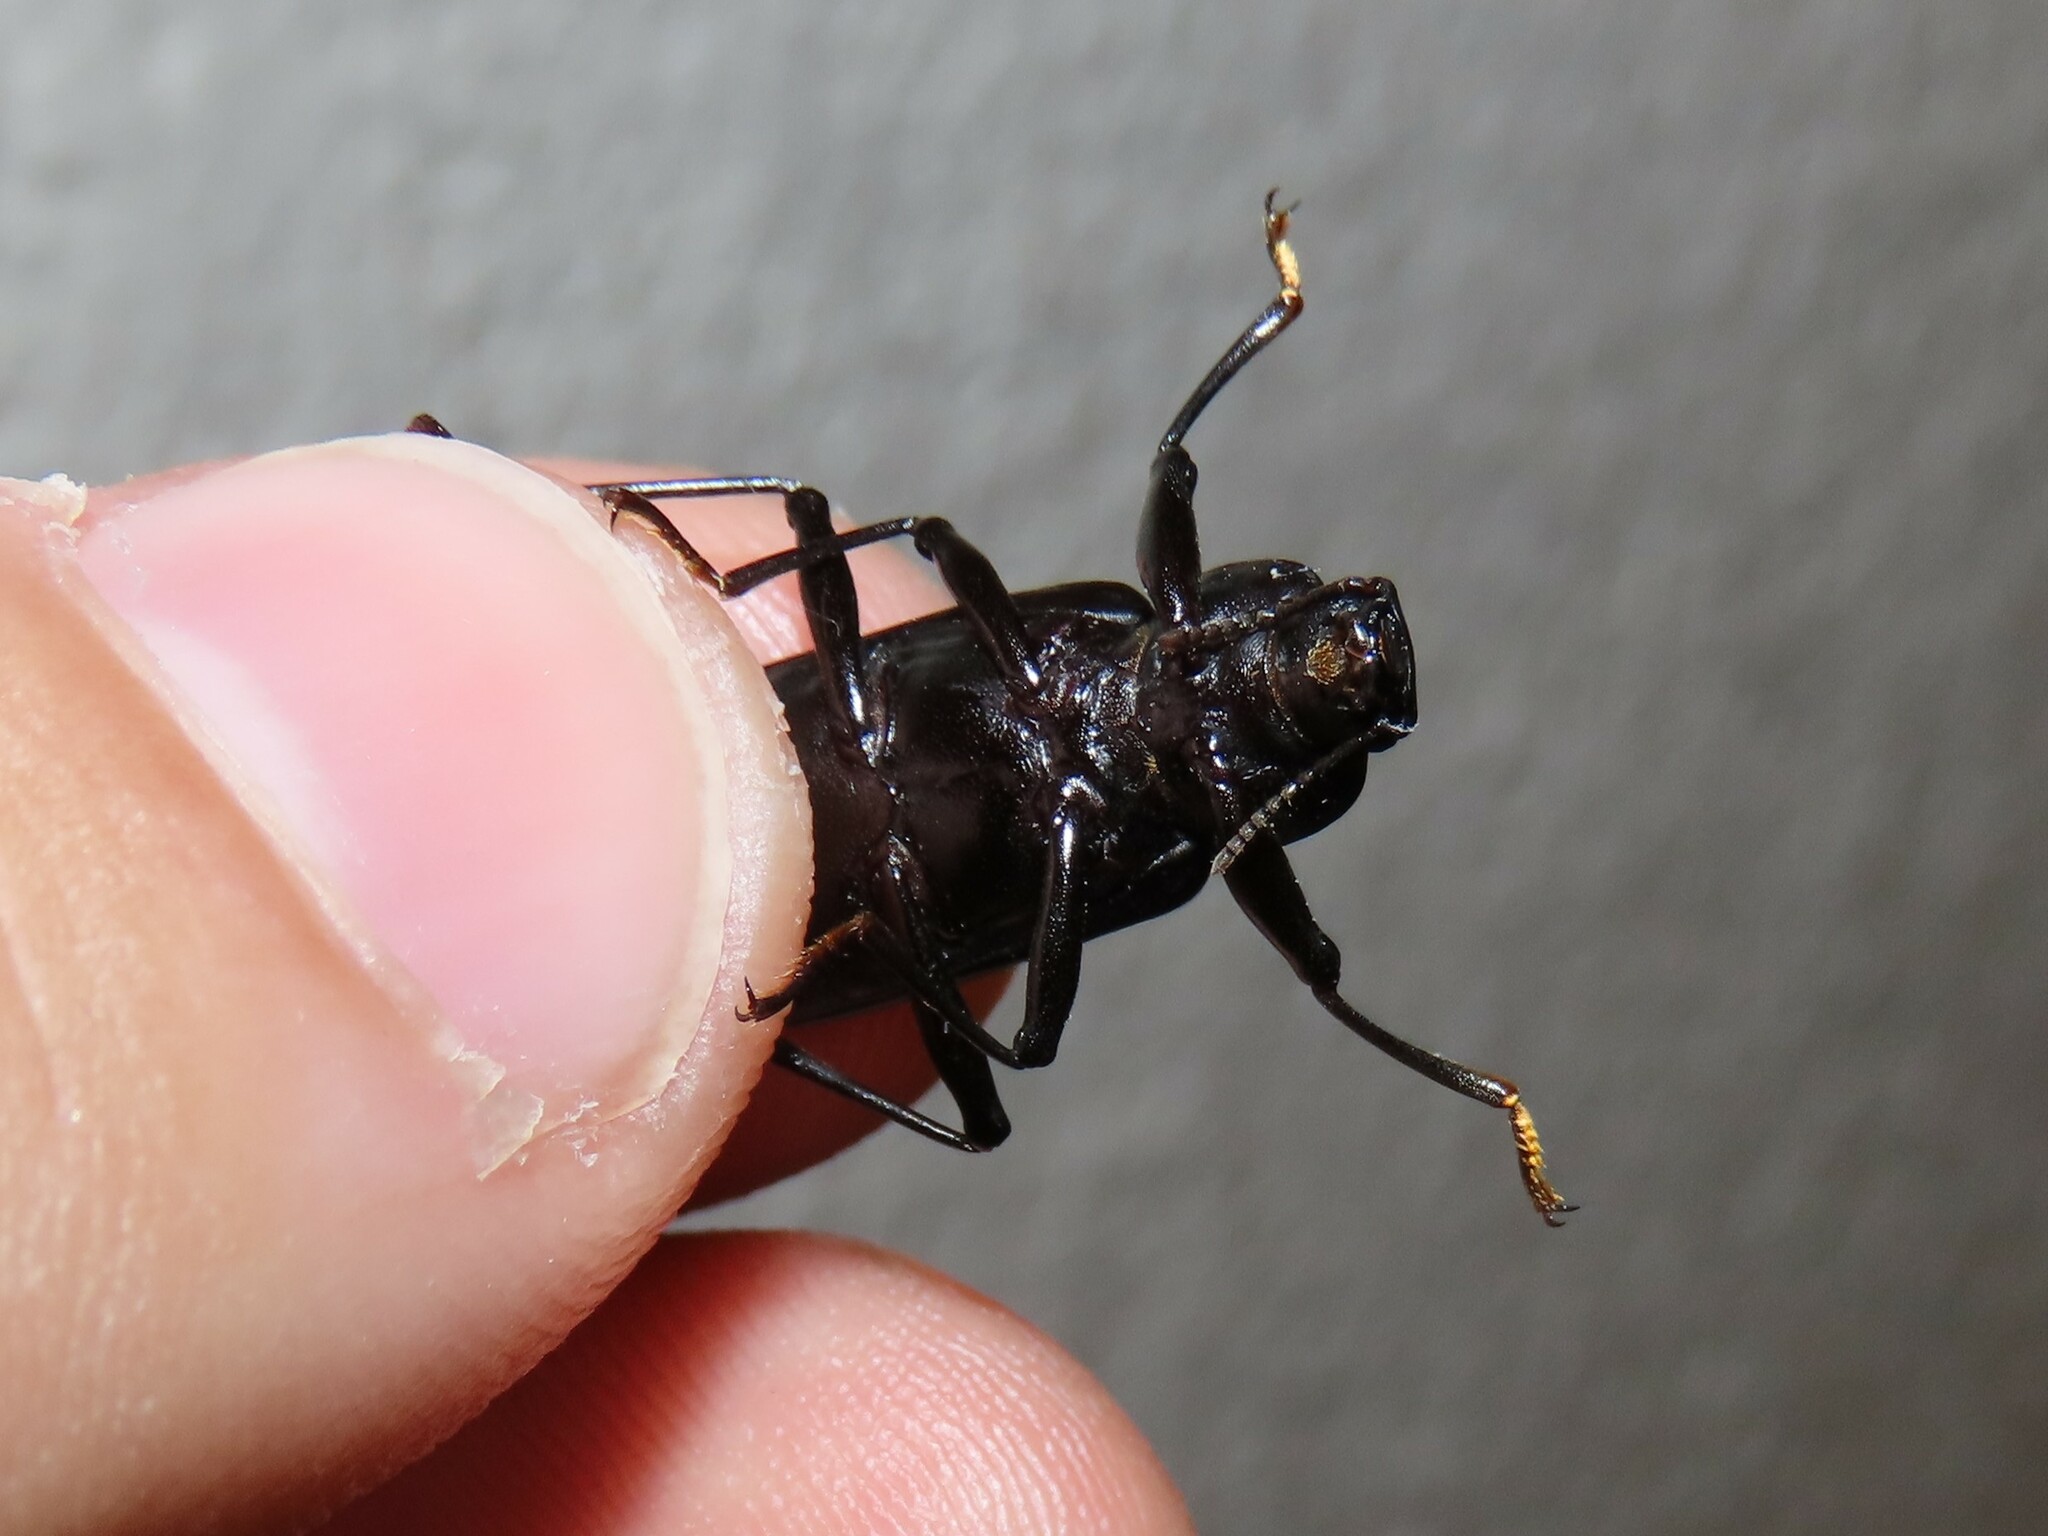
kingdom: Animalia
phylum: Arthropoda
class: Insecta
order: Coleoptera
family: Tenebrionidae
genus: Alobates
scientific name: Alobates barbatus
